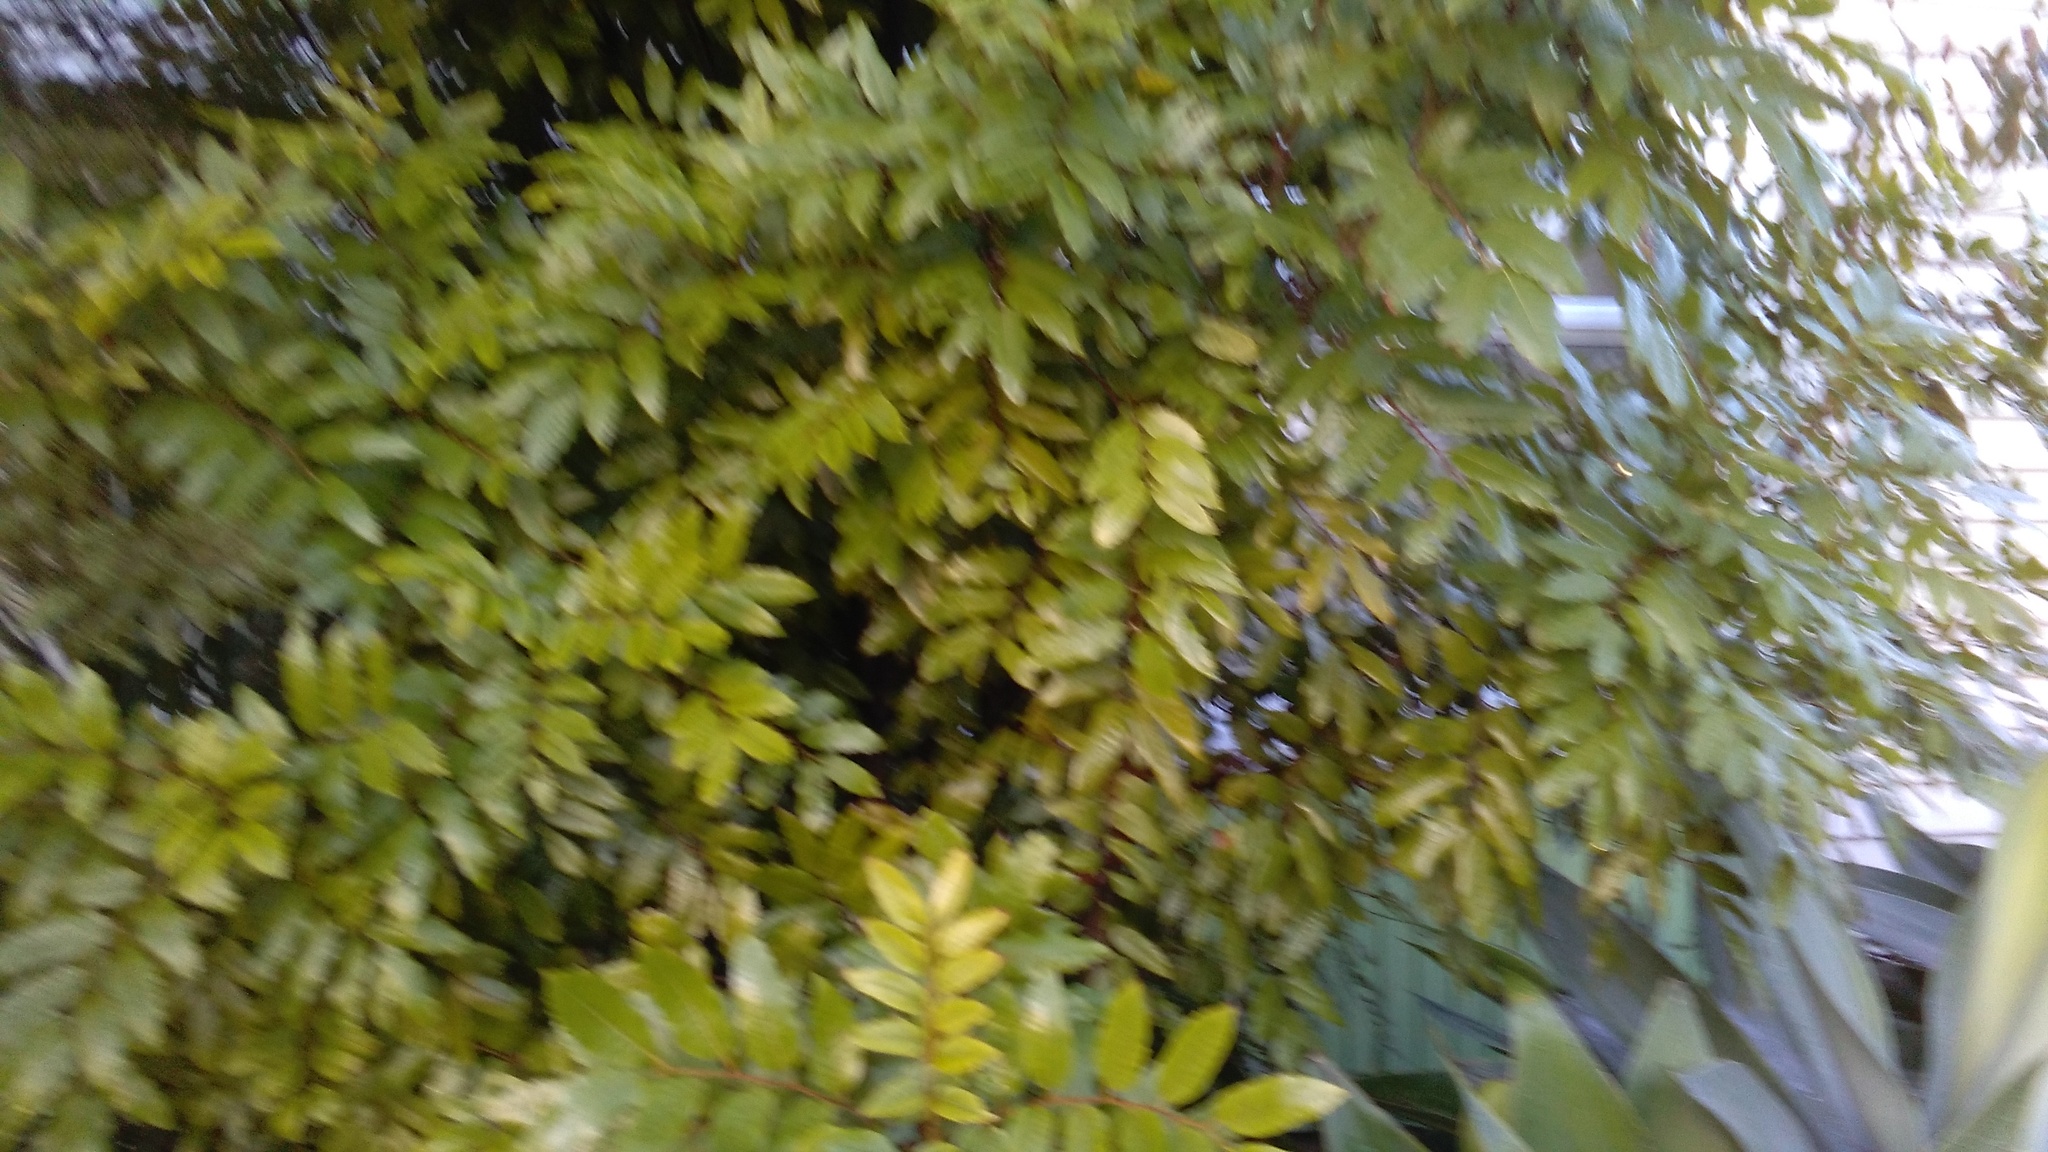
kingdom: Plantae
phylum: Tracheophyta
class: Magnoliopsida
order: Sapindales
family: Sapindaceae
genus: Alectryon
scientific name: Alectryon excelsus
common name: Three kings titoki
